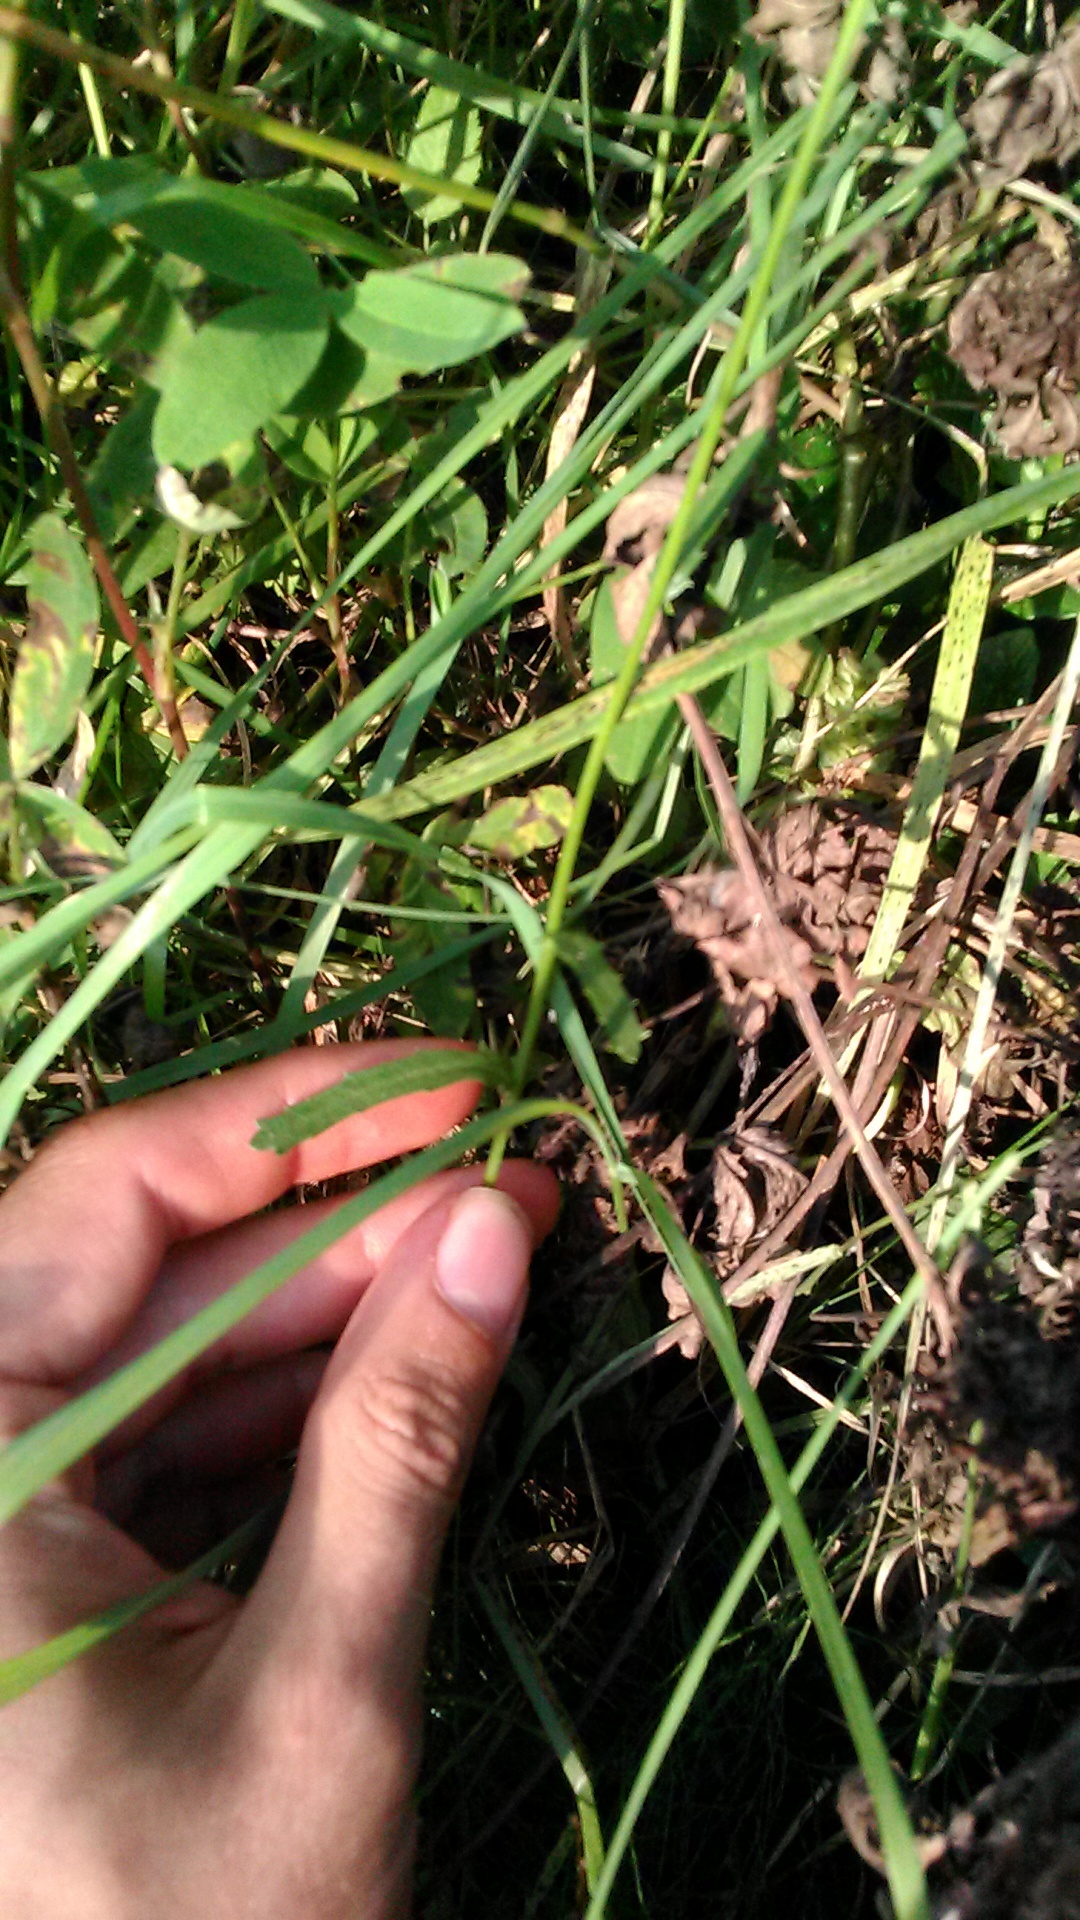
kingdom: Plantae
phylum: Tracheophyta
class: Magnoliopsida
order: Asterales
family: Asteraceae
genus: Leucanthemum
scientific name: Leucanthemum vulgare
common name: Oxeye daisy
